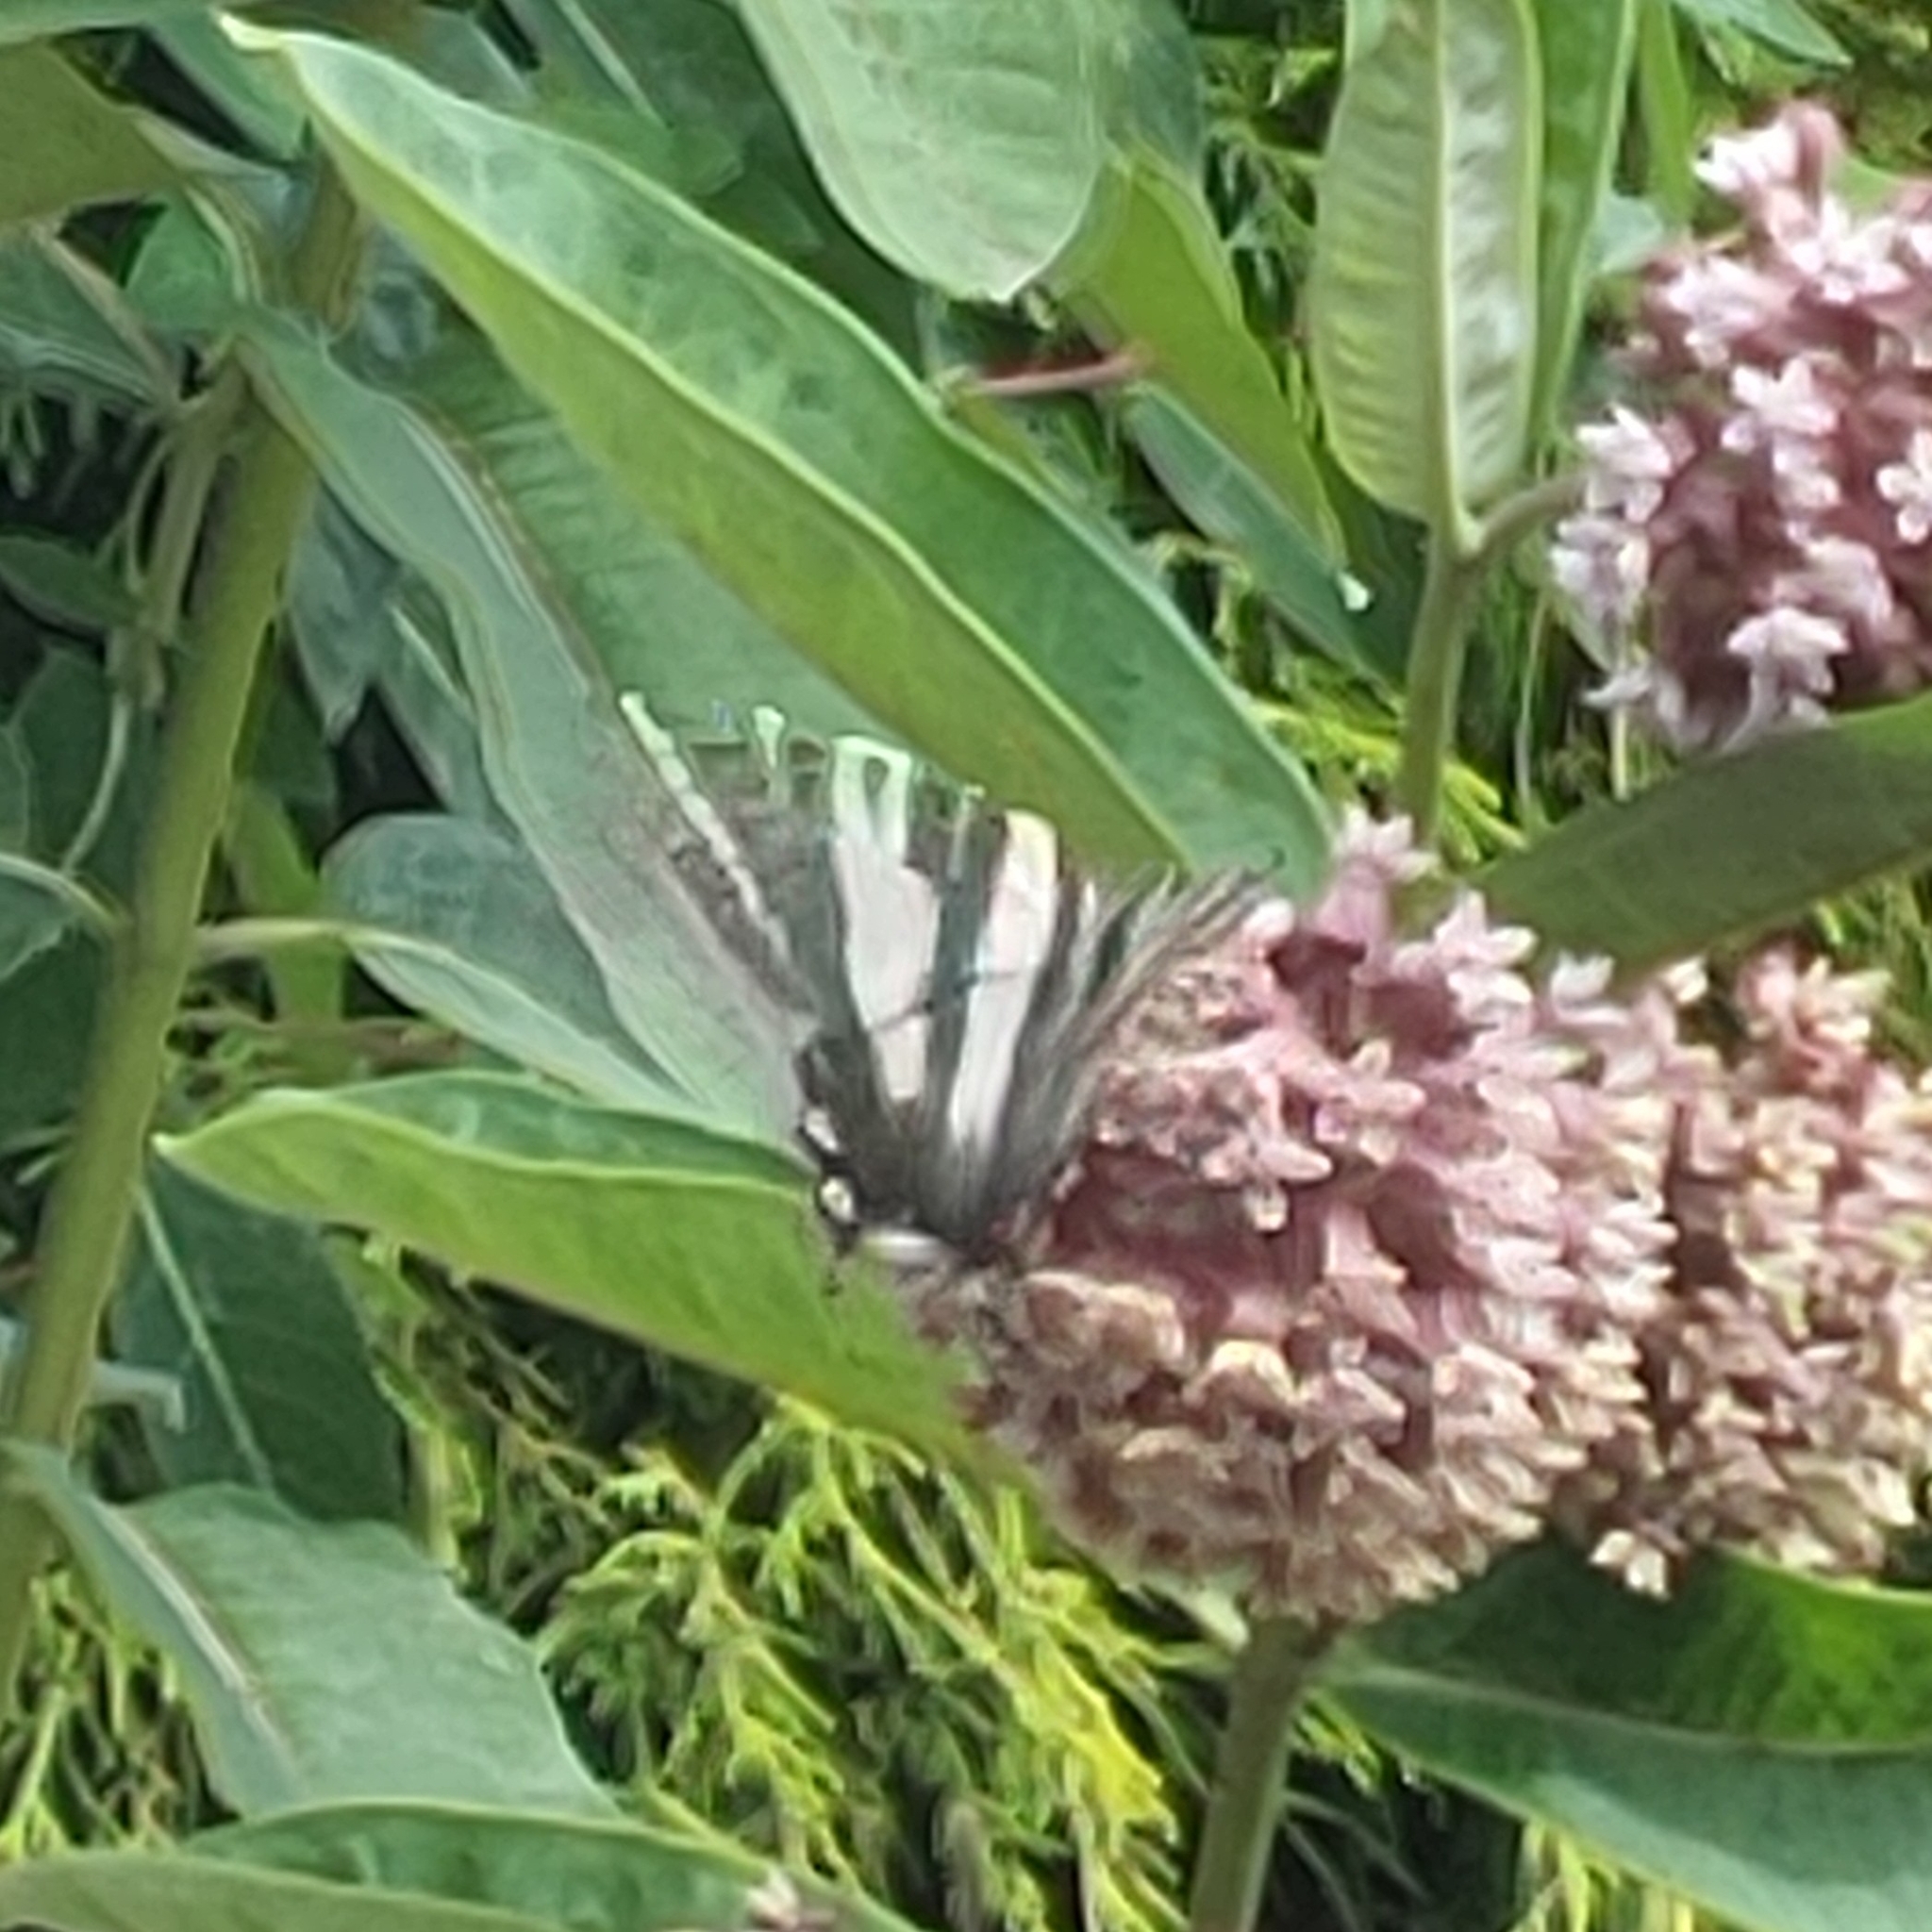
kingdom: Animalia
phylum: Arthropoda
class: Insecta
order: Lepidoptera
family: Papilionidae
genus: Protographium
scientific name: Protographium marcellus
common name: Zebra swallowtail
